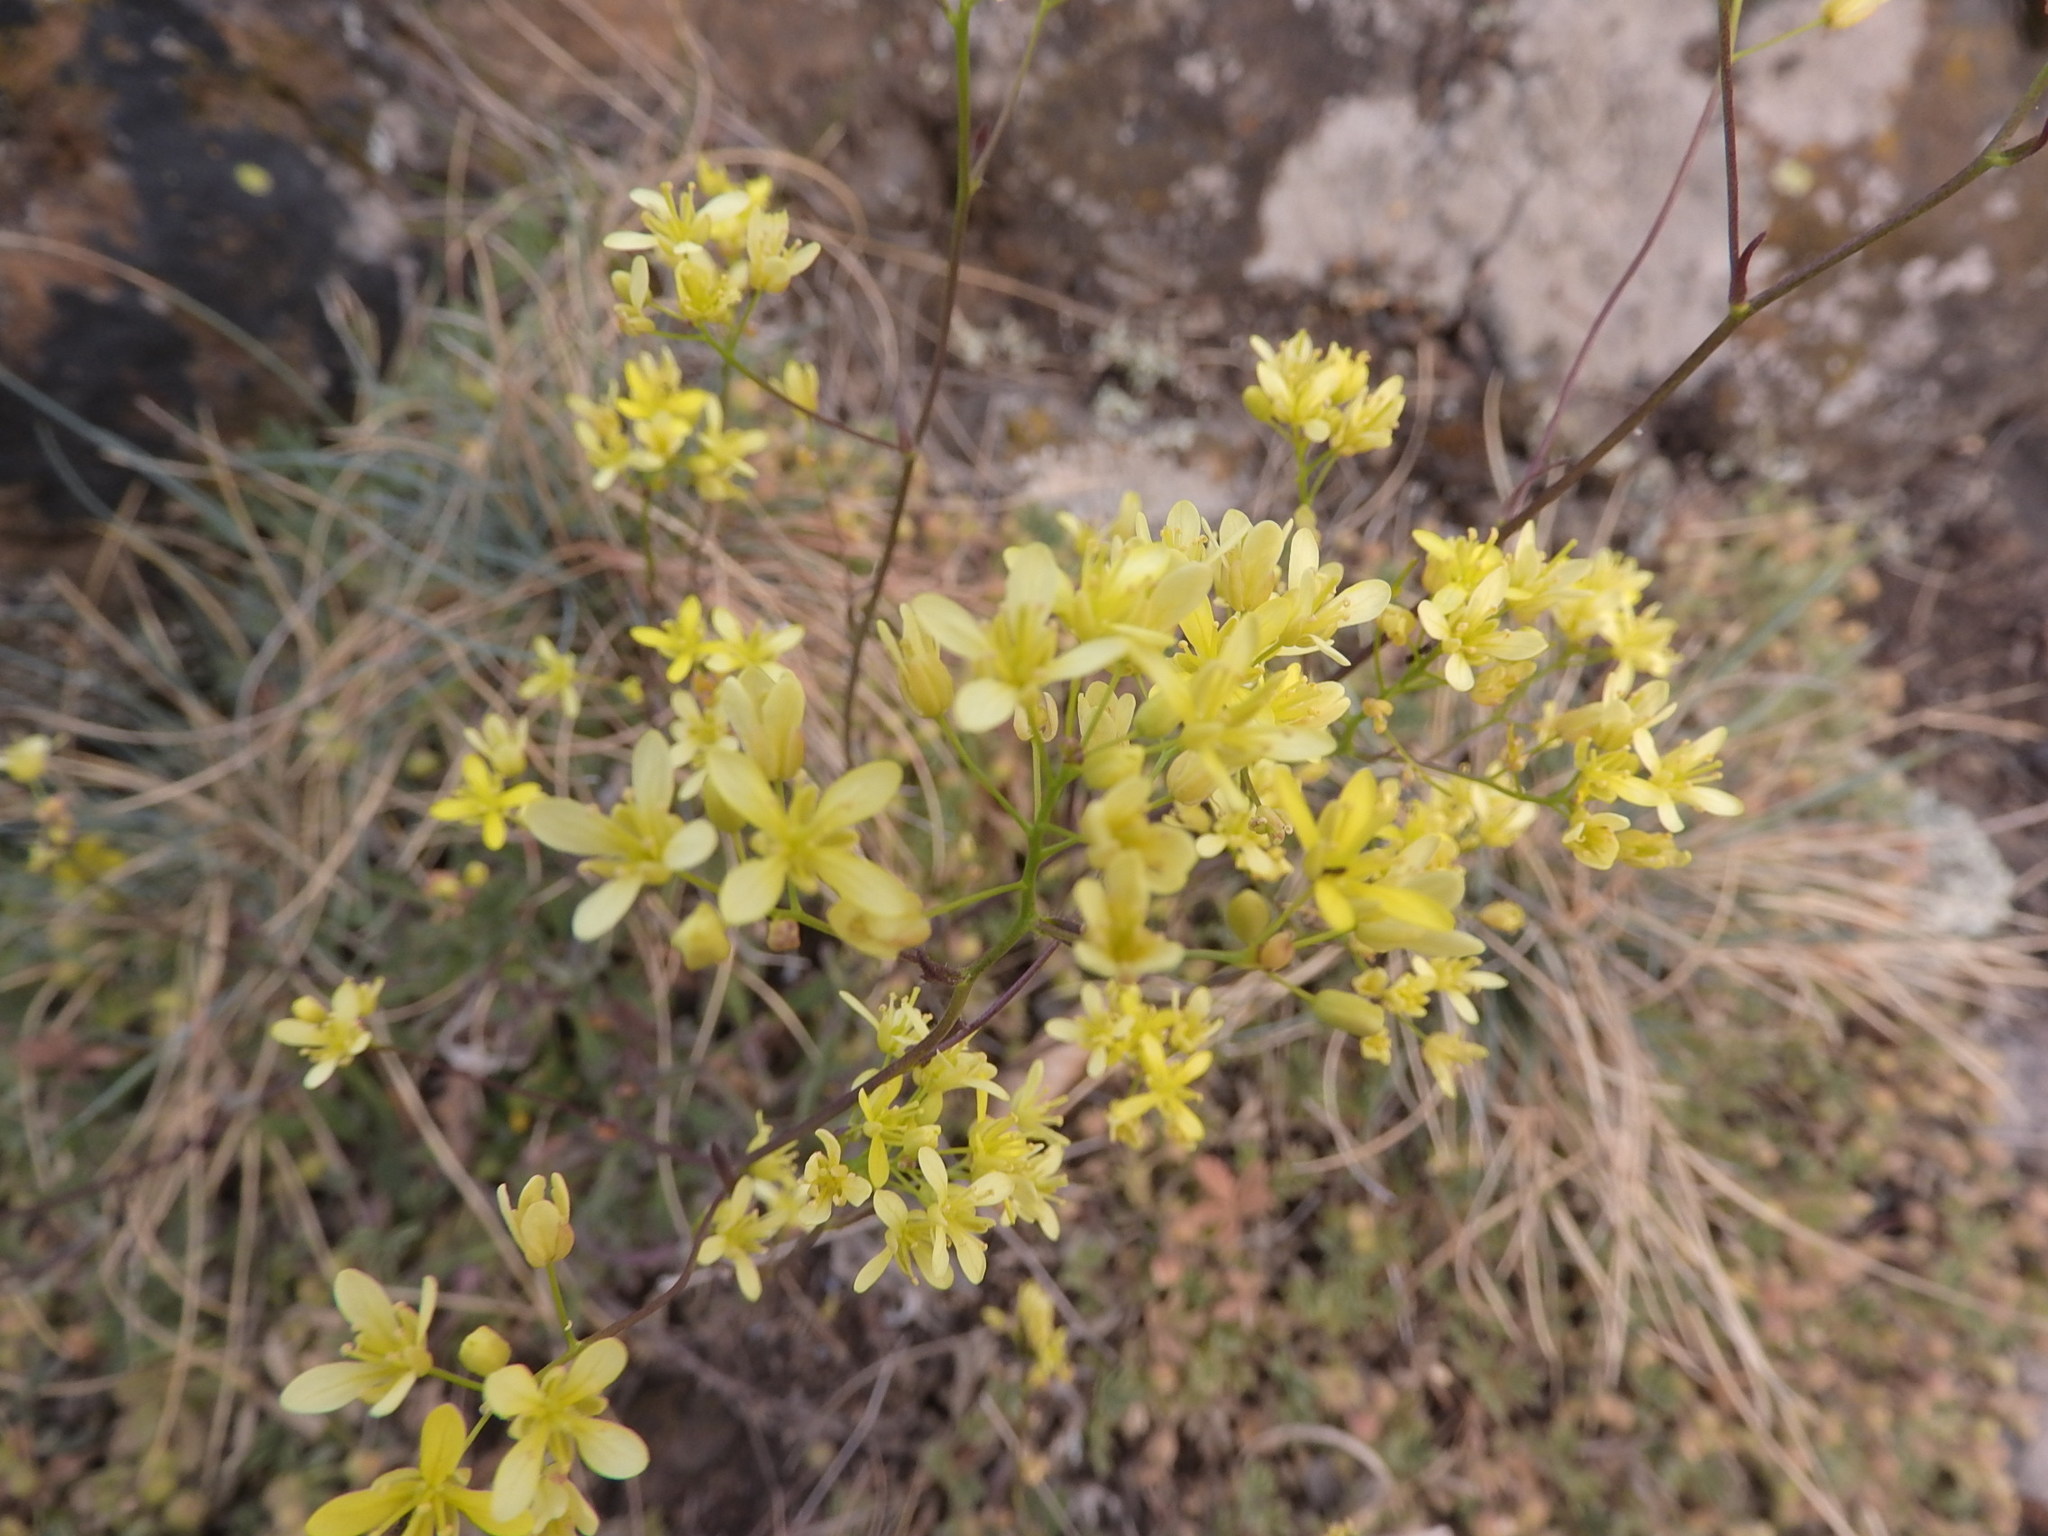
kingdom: Plantae
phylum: Tracheophyta
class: Magnoliopsida
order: Brassicales
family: Brassicaceae
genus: Biscutella
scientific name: Biscutella laevigata
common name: Buckler mustard
